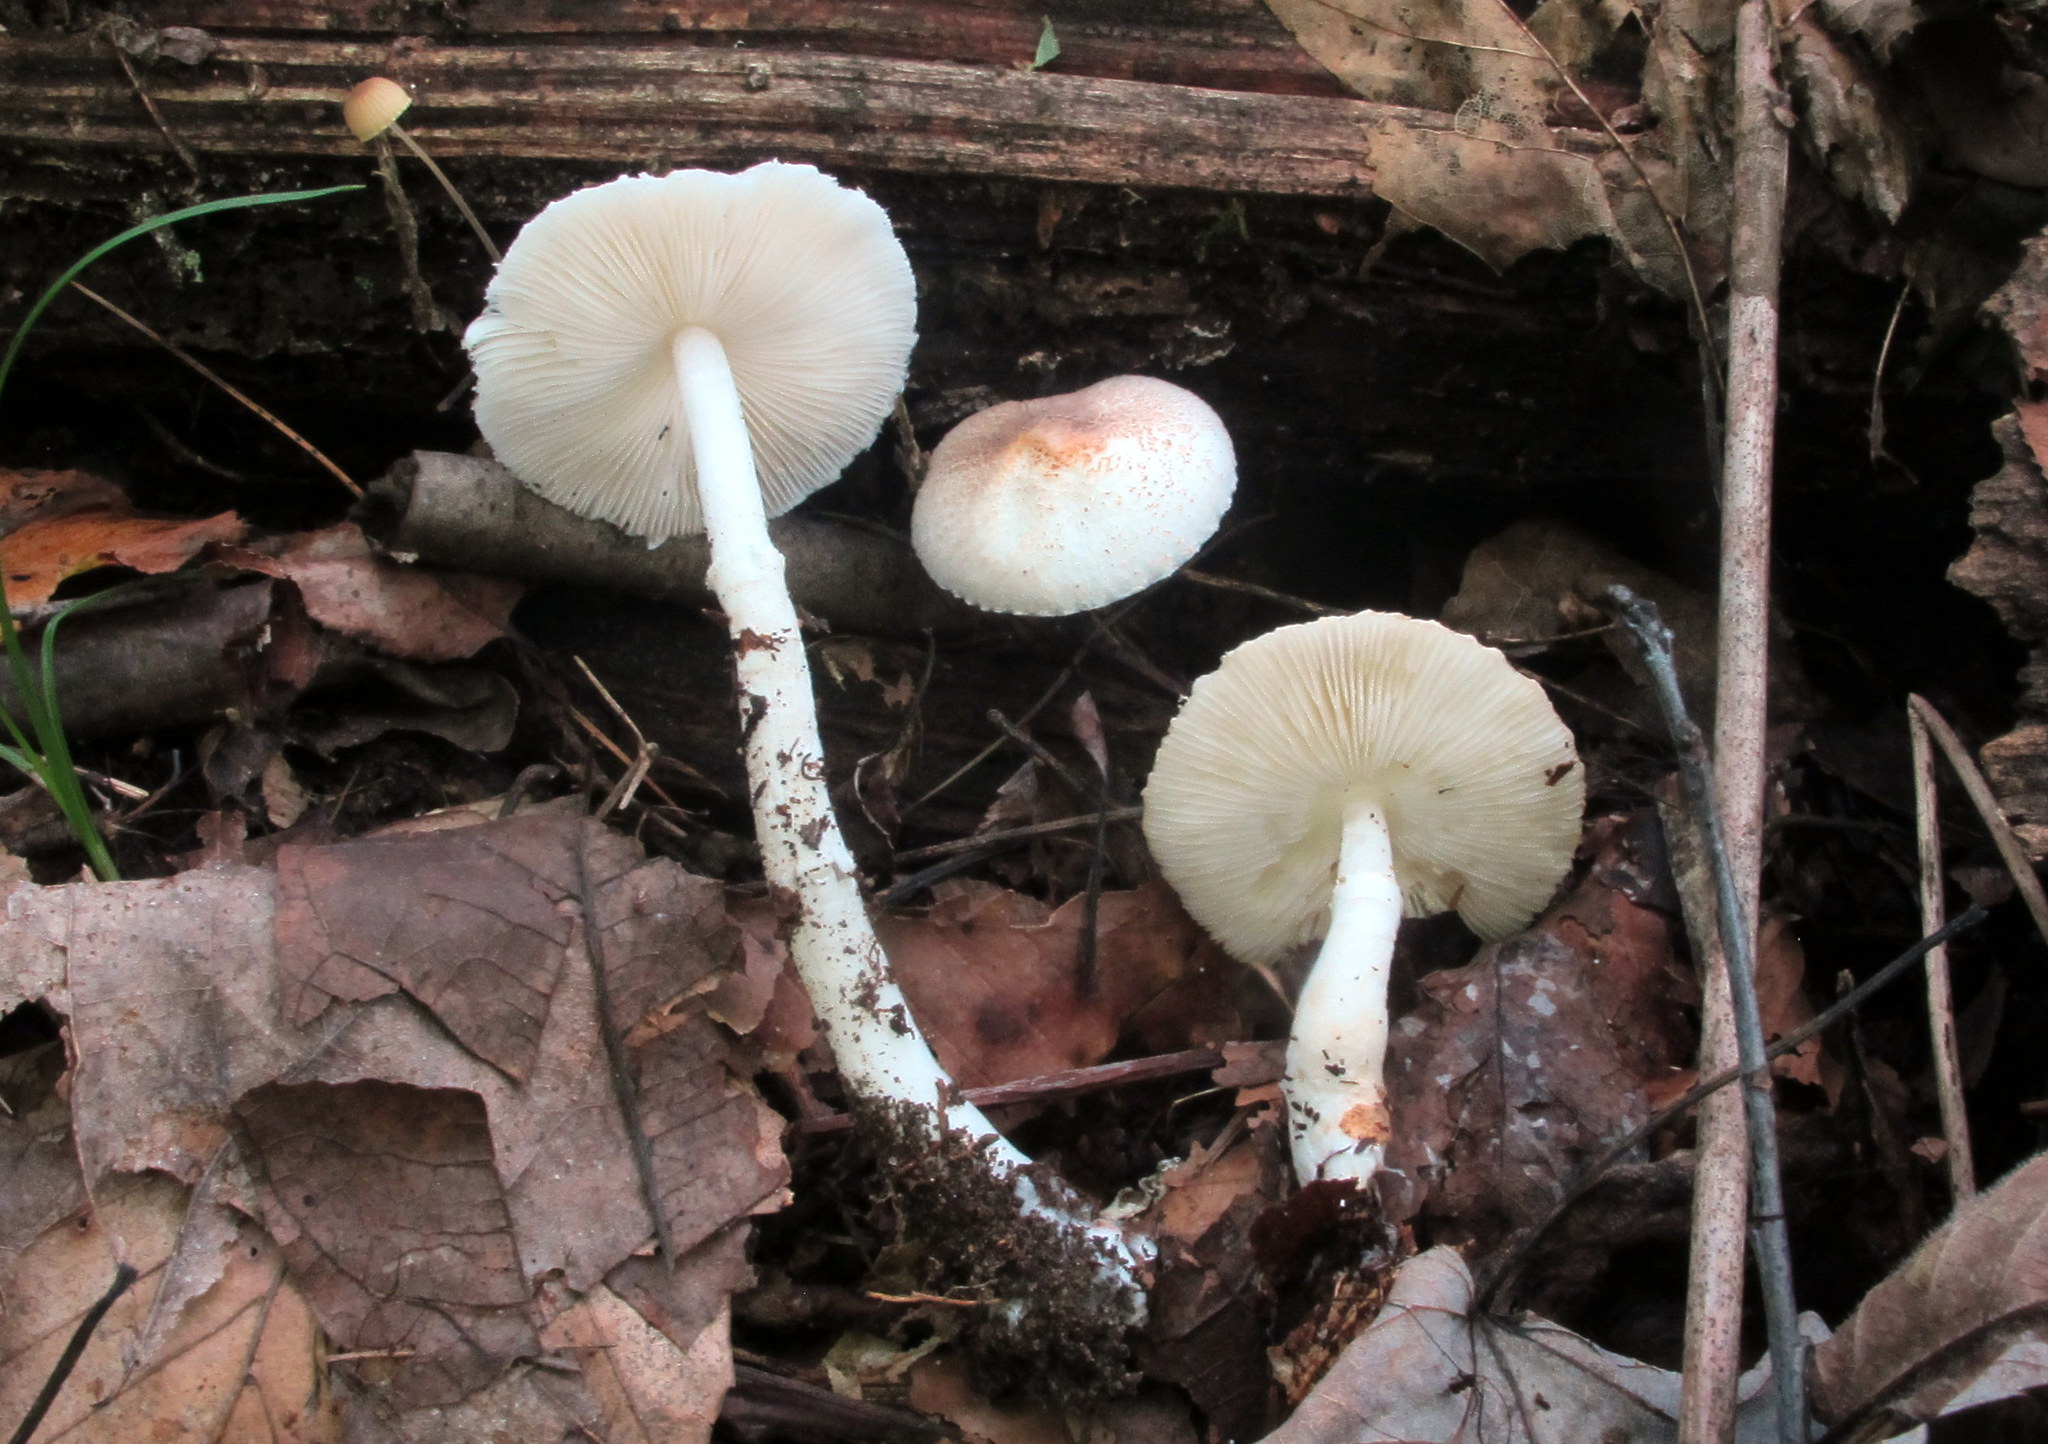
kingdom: Fungi
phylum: Basidiomycota
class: Agaricomycetes
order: Agaricales
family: Agaricaceae
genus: Leucoagaricus
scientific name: Leucoagaricus rubrotinctus
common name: Ruby dapperling
